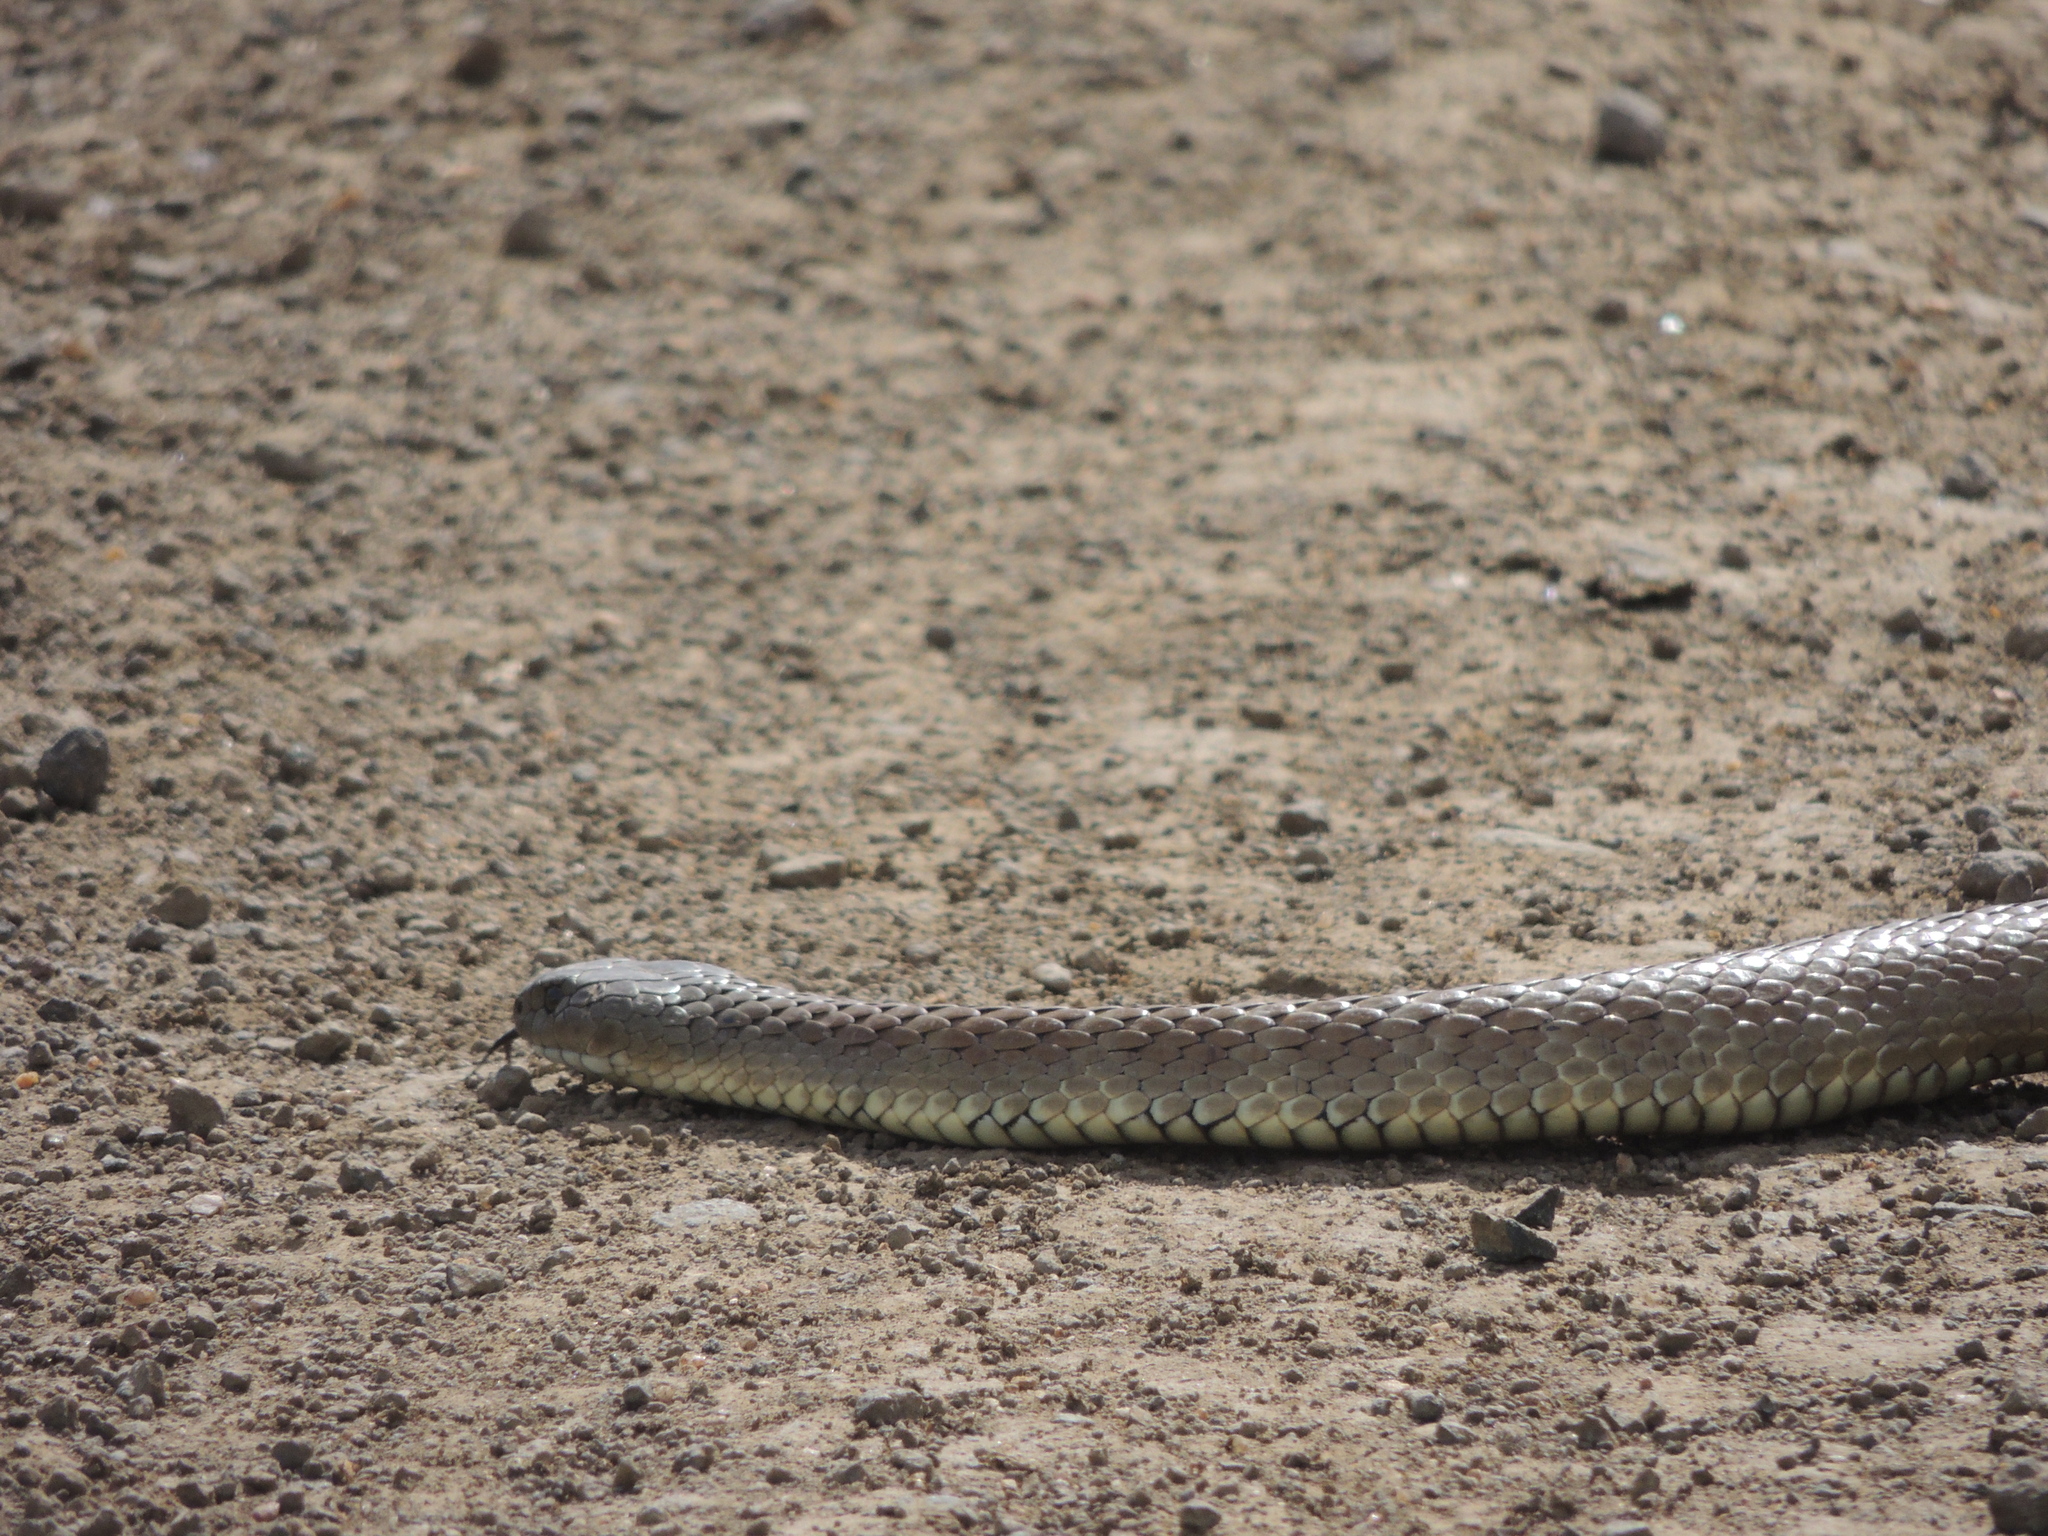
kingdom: Animalia
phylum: Chordata
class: Squamata
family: Elapidae
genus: Notechis
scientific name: Notechis scutatus
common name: Mainland tiger snake
